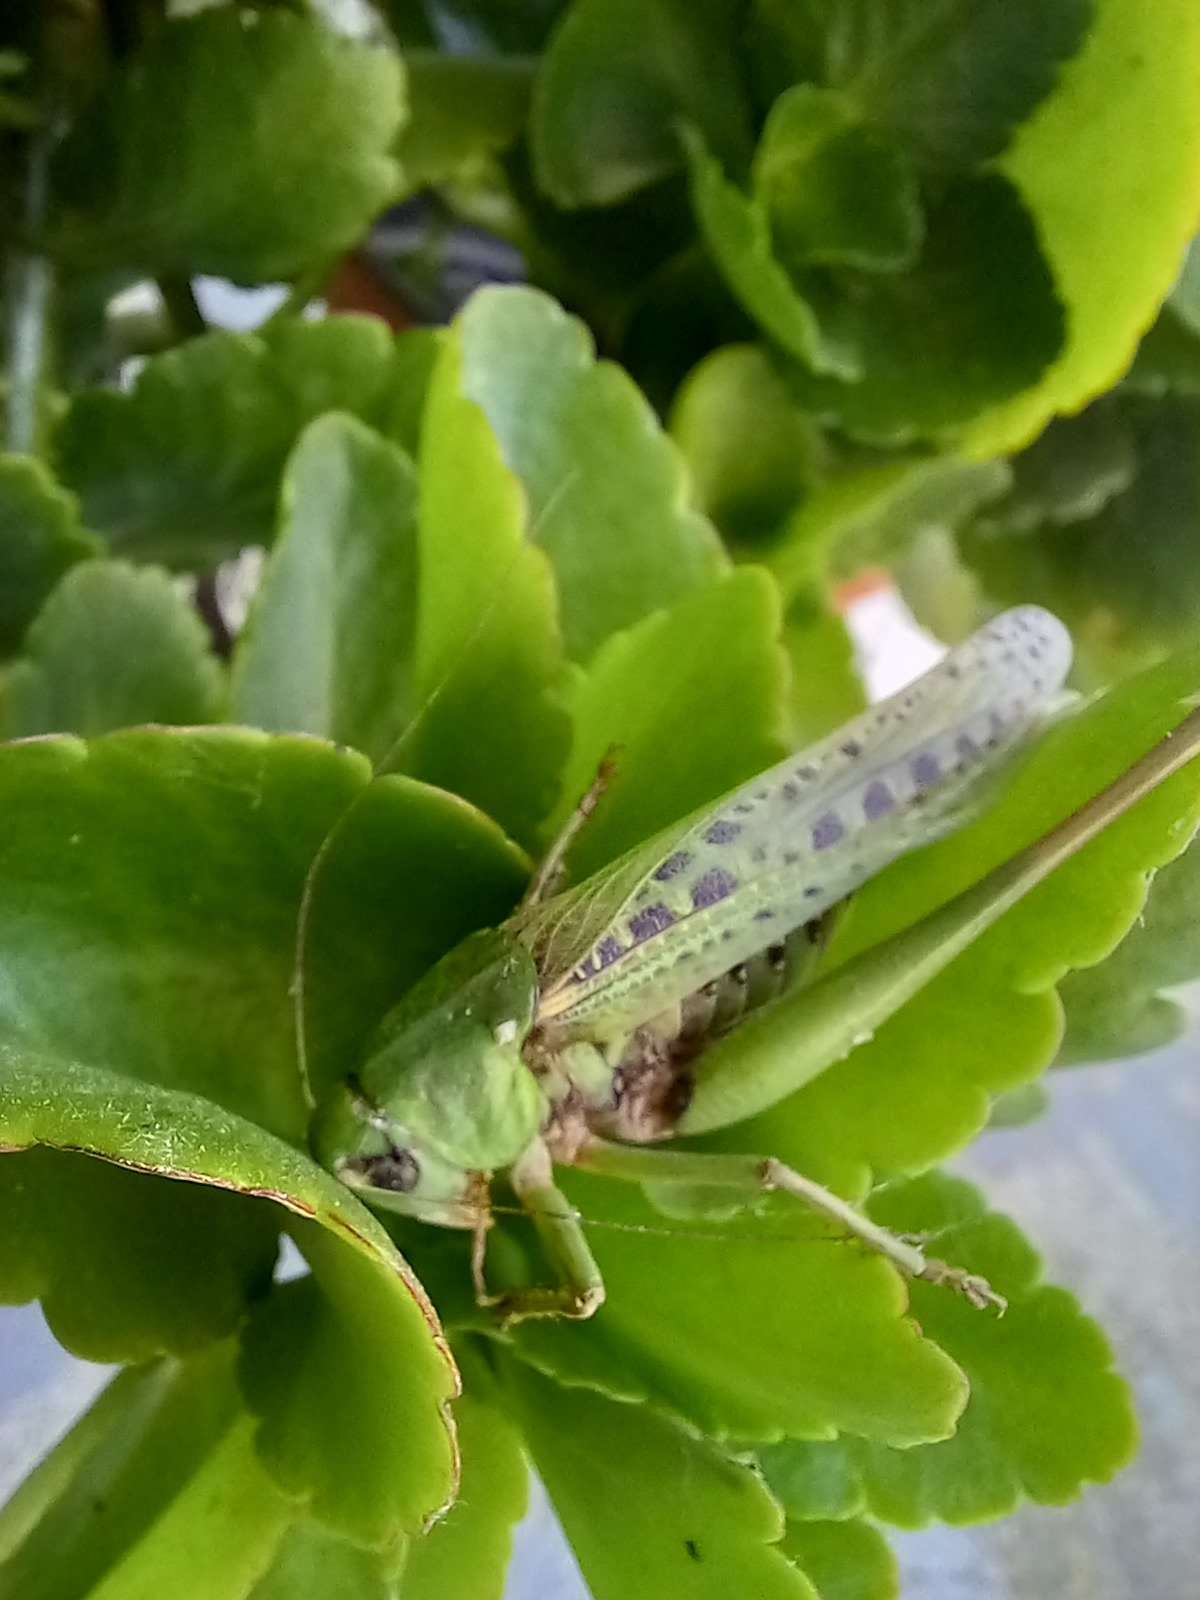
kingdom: Animalia
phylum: Arthropoda
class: Insecta
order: Orthoptera
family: Tettigoniidae
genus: Decticus
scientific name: Decticus verrucivorus
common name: Wart-biter
